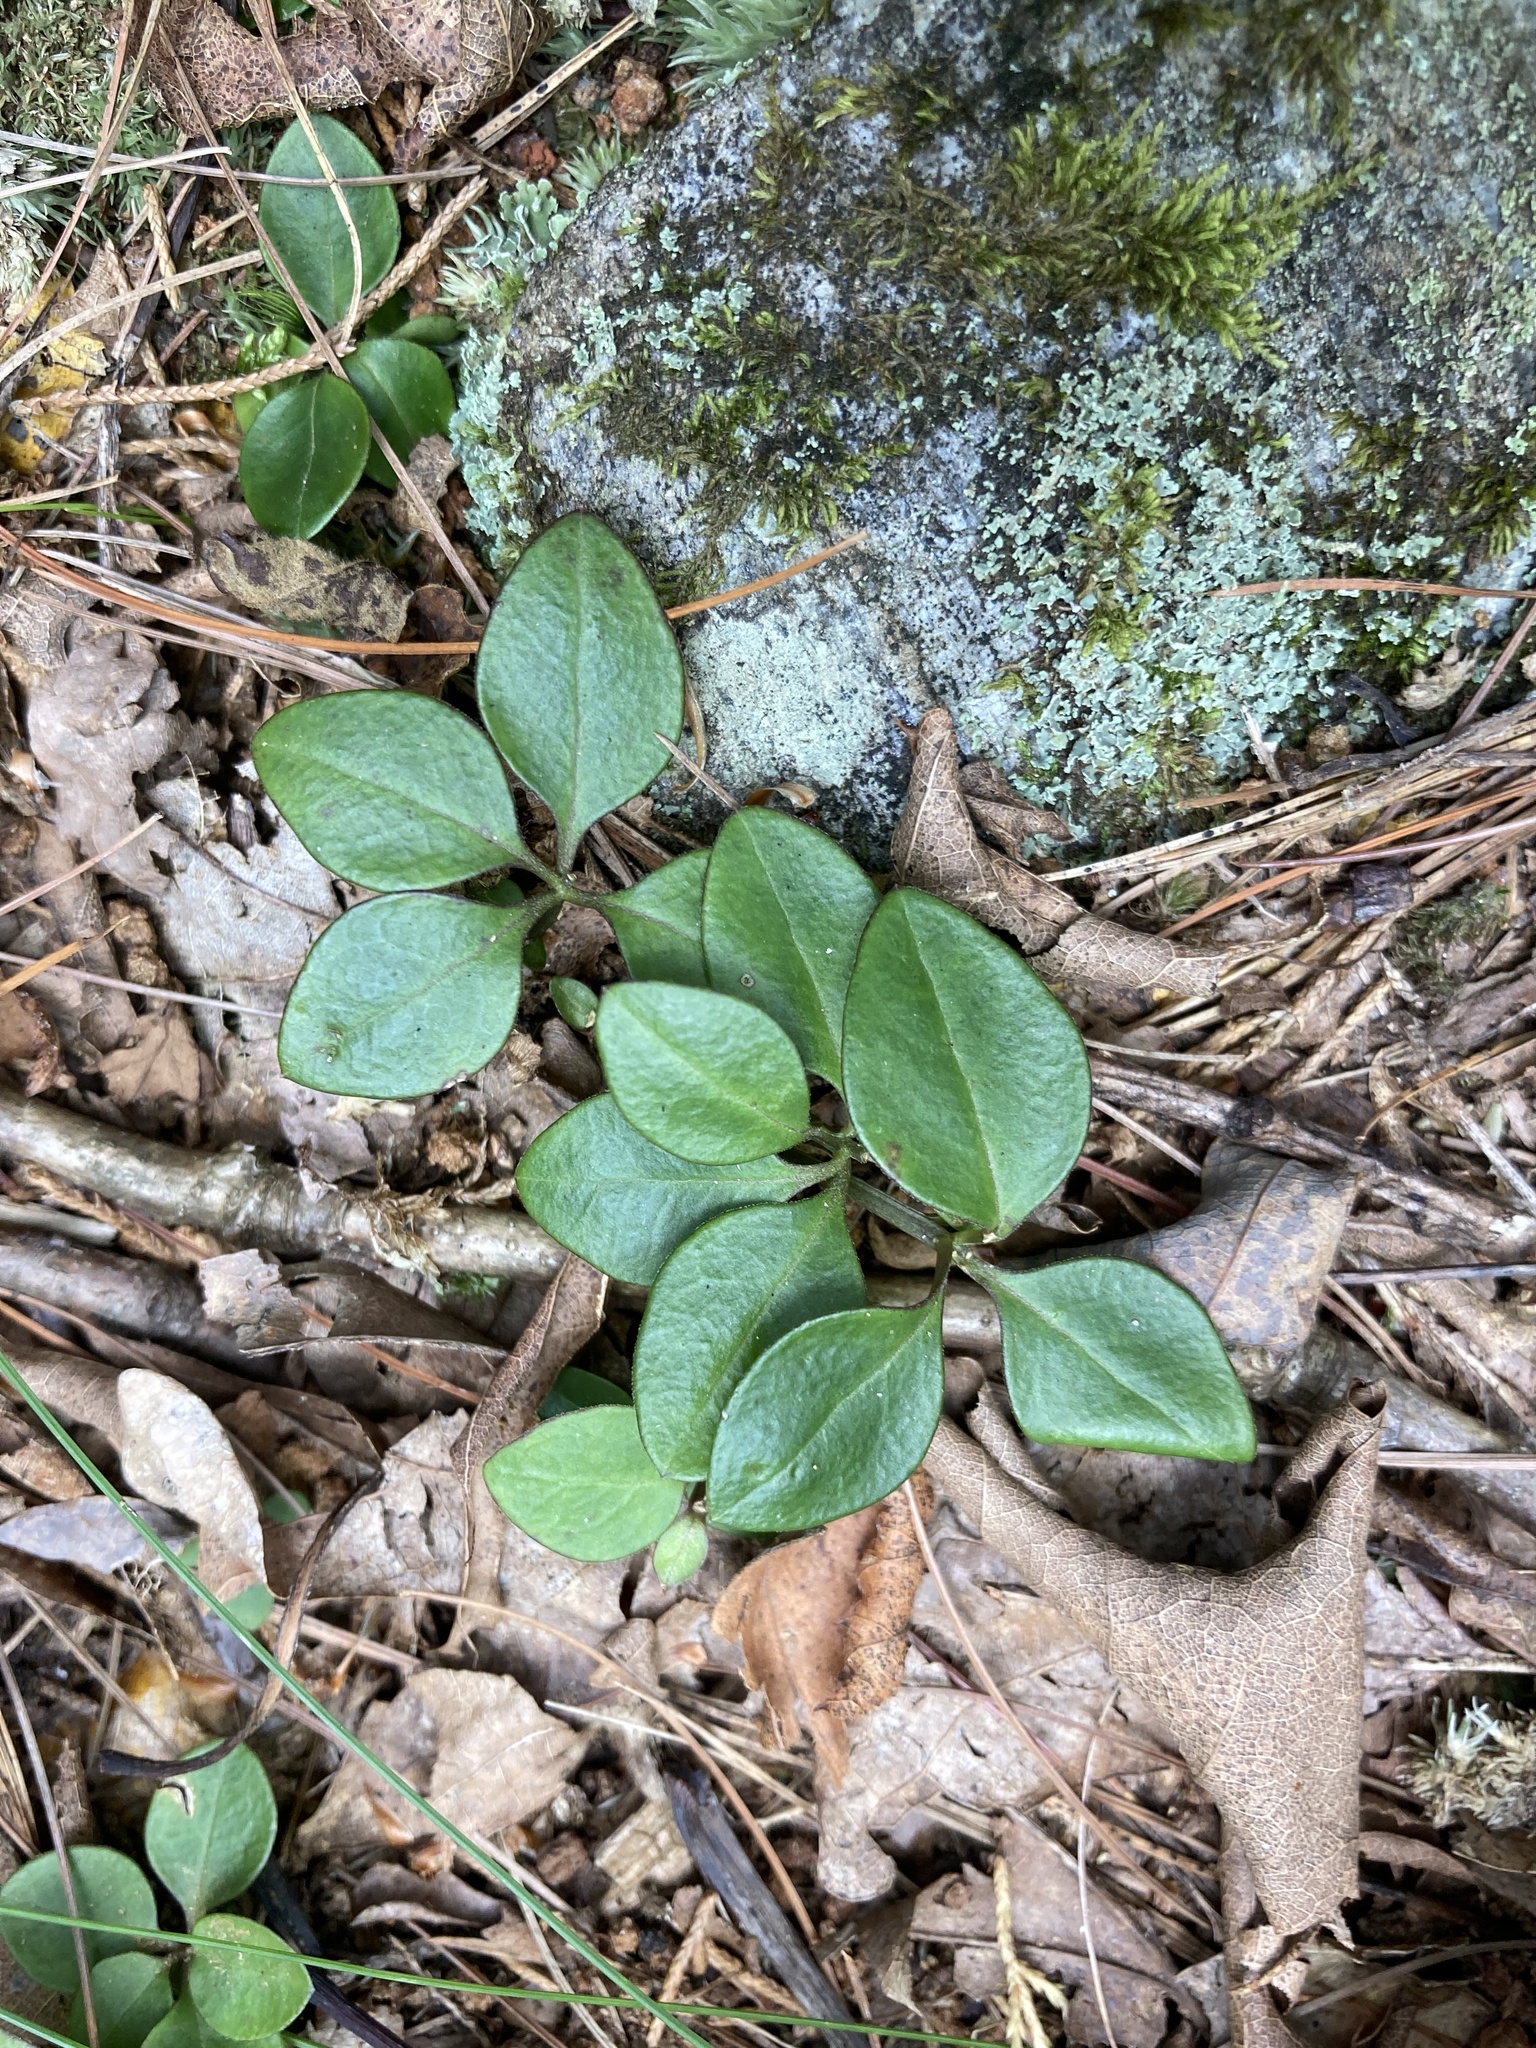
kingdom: Plantae
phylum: Tracheophyta
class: Magnoliopsida
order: Fabales
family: Polygalaceae
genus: Polygaloides
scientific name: Polygaloides paucifolia
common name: Bird-on-the-wing
